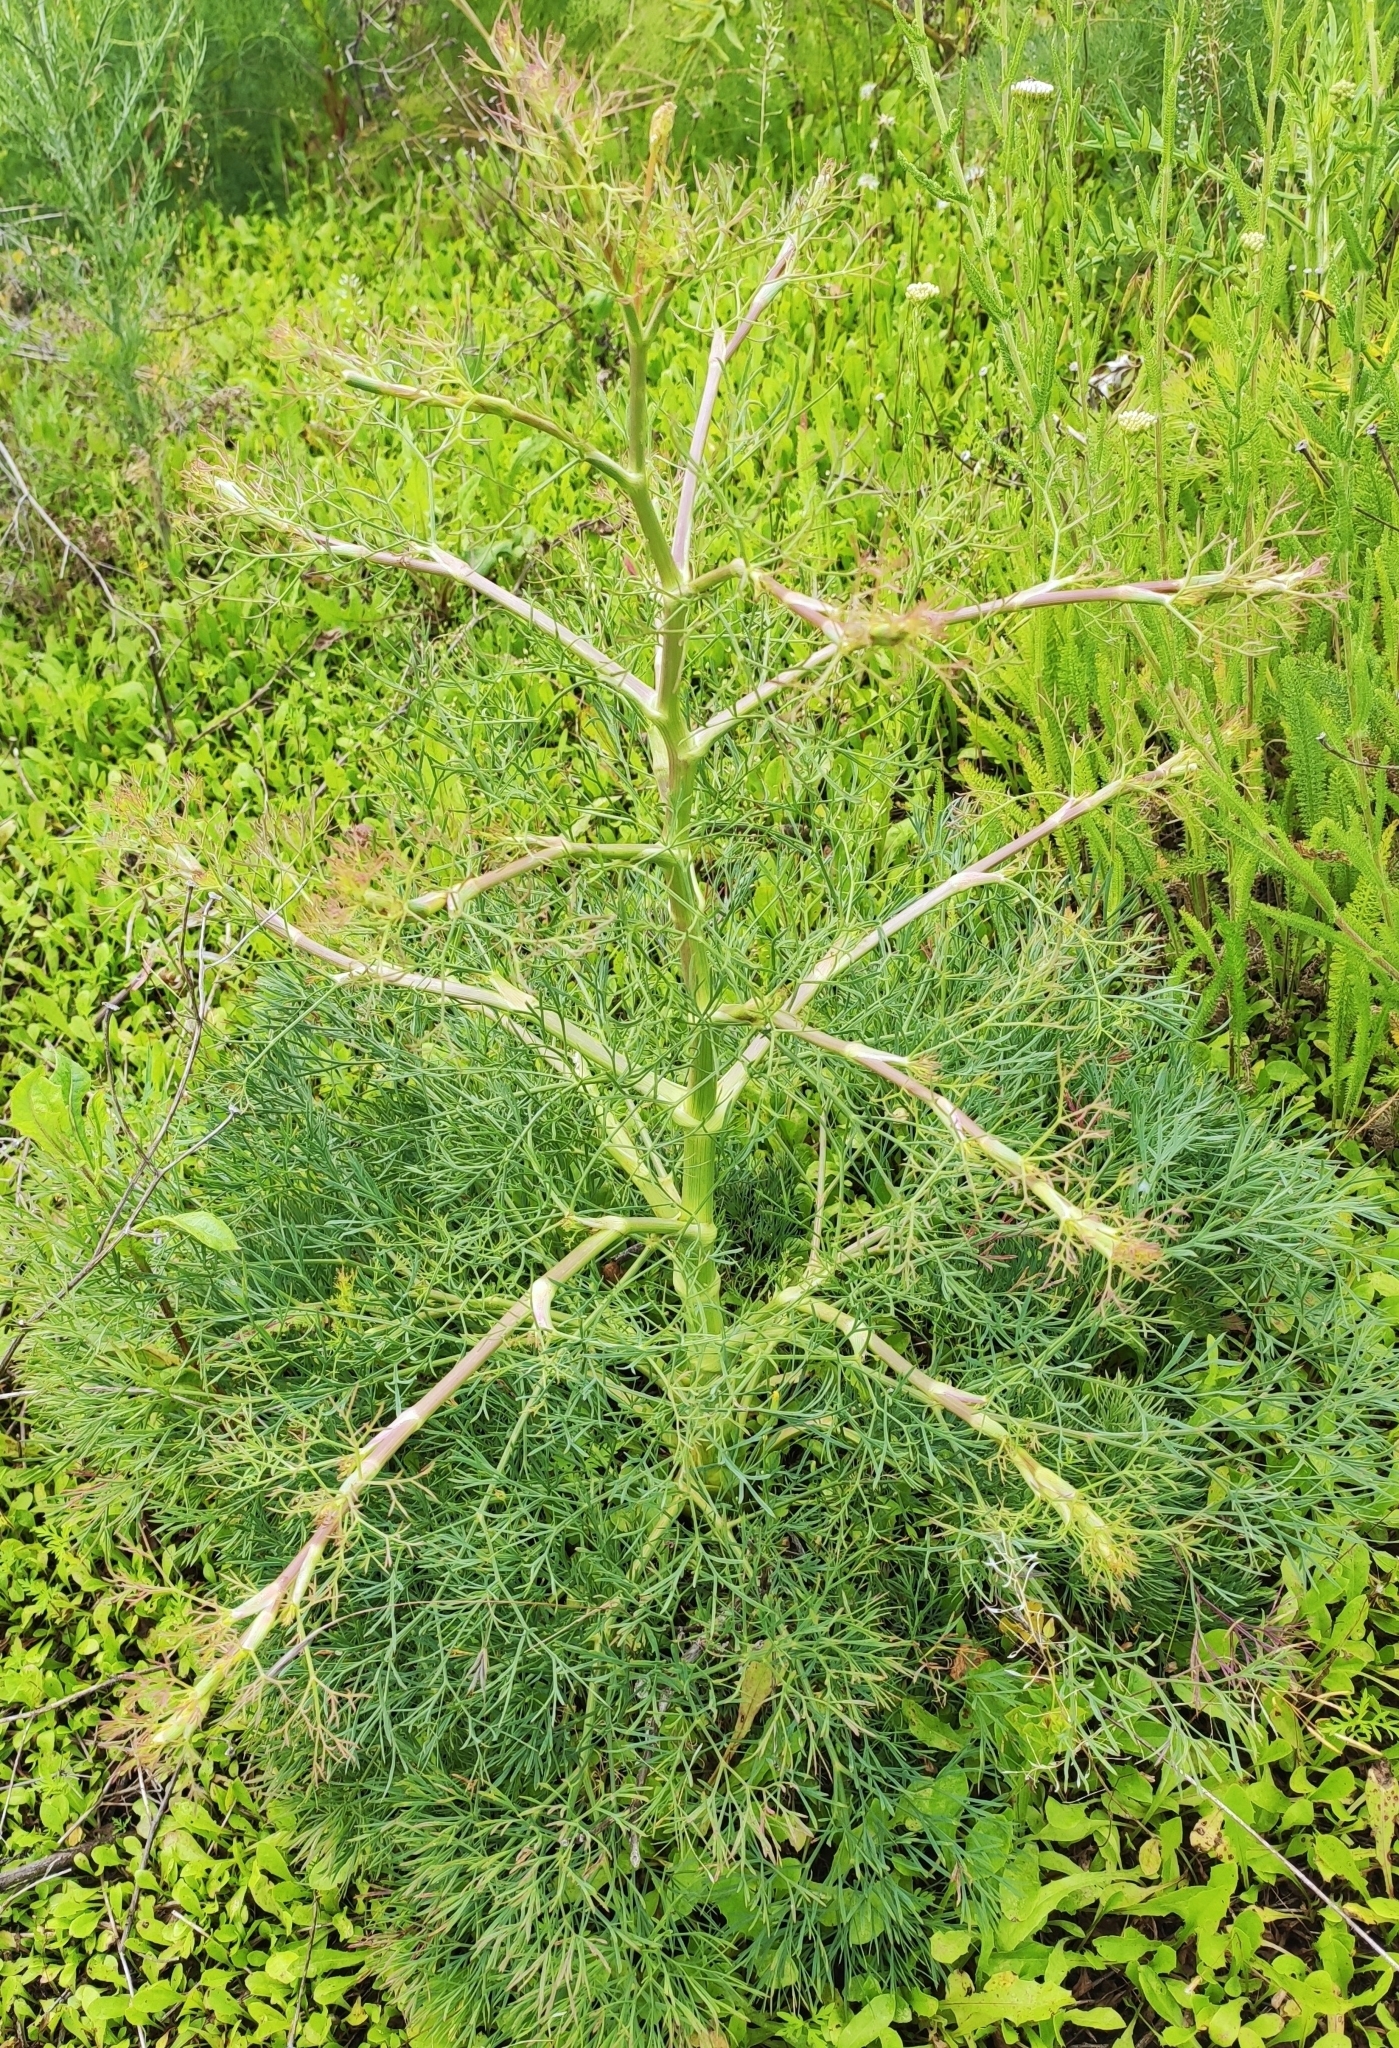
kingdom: Plantae
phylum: Tracheophyta
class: Magnoliopsida
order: Apiales
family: Apiaceae
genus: Seseli
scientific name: Seseli arenarium
